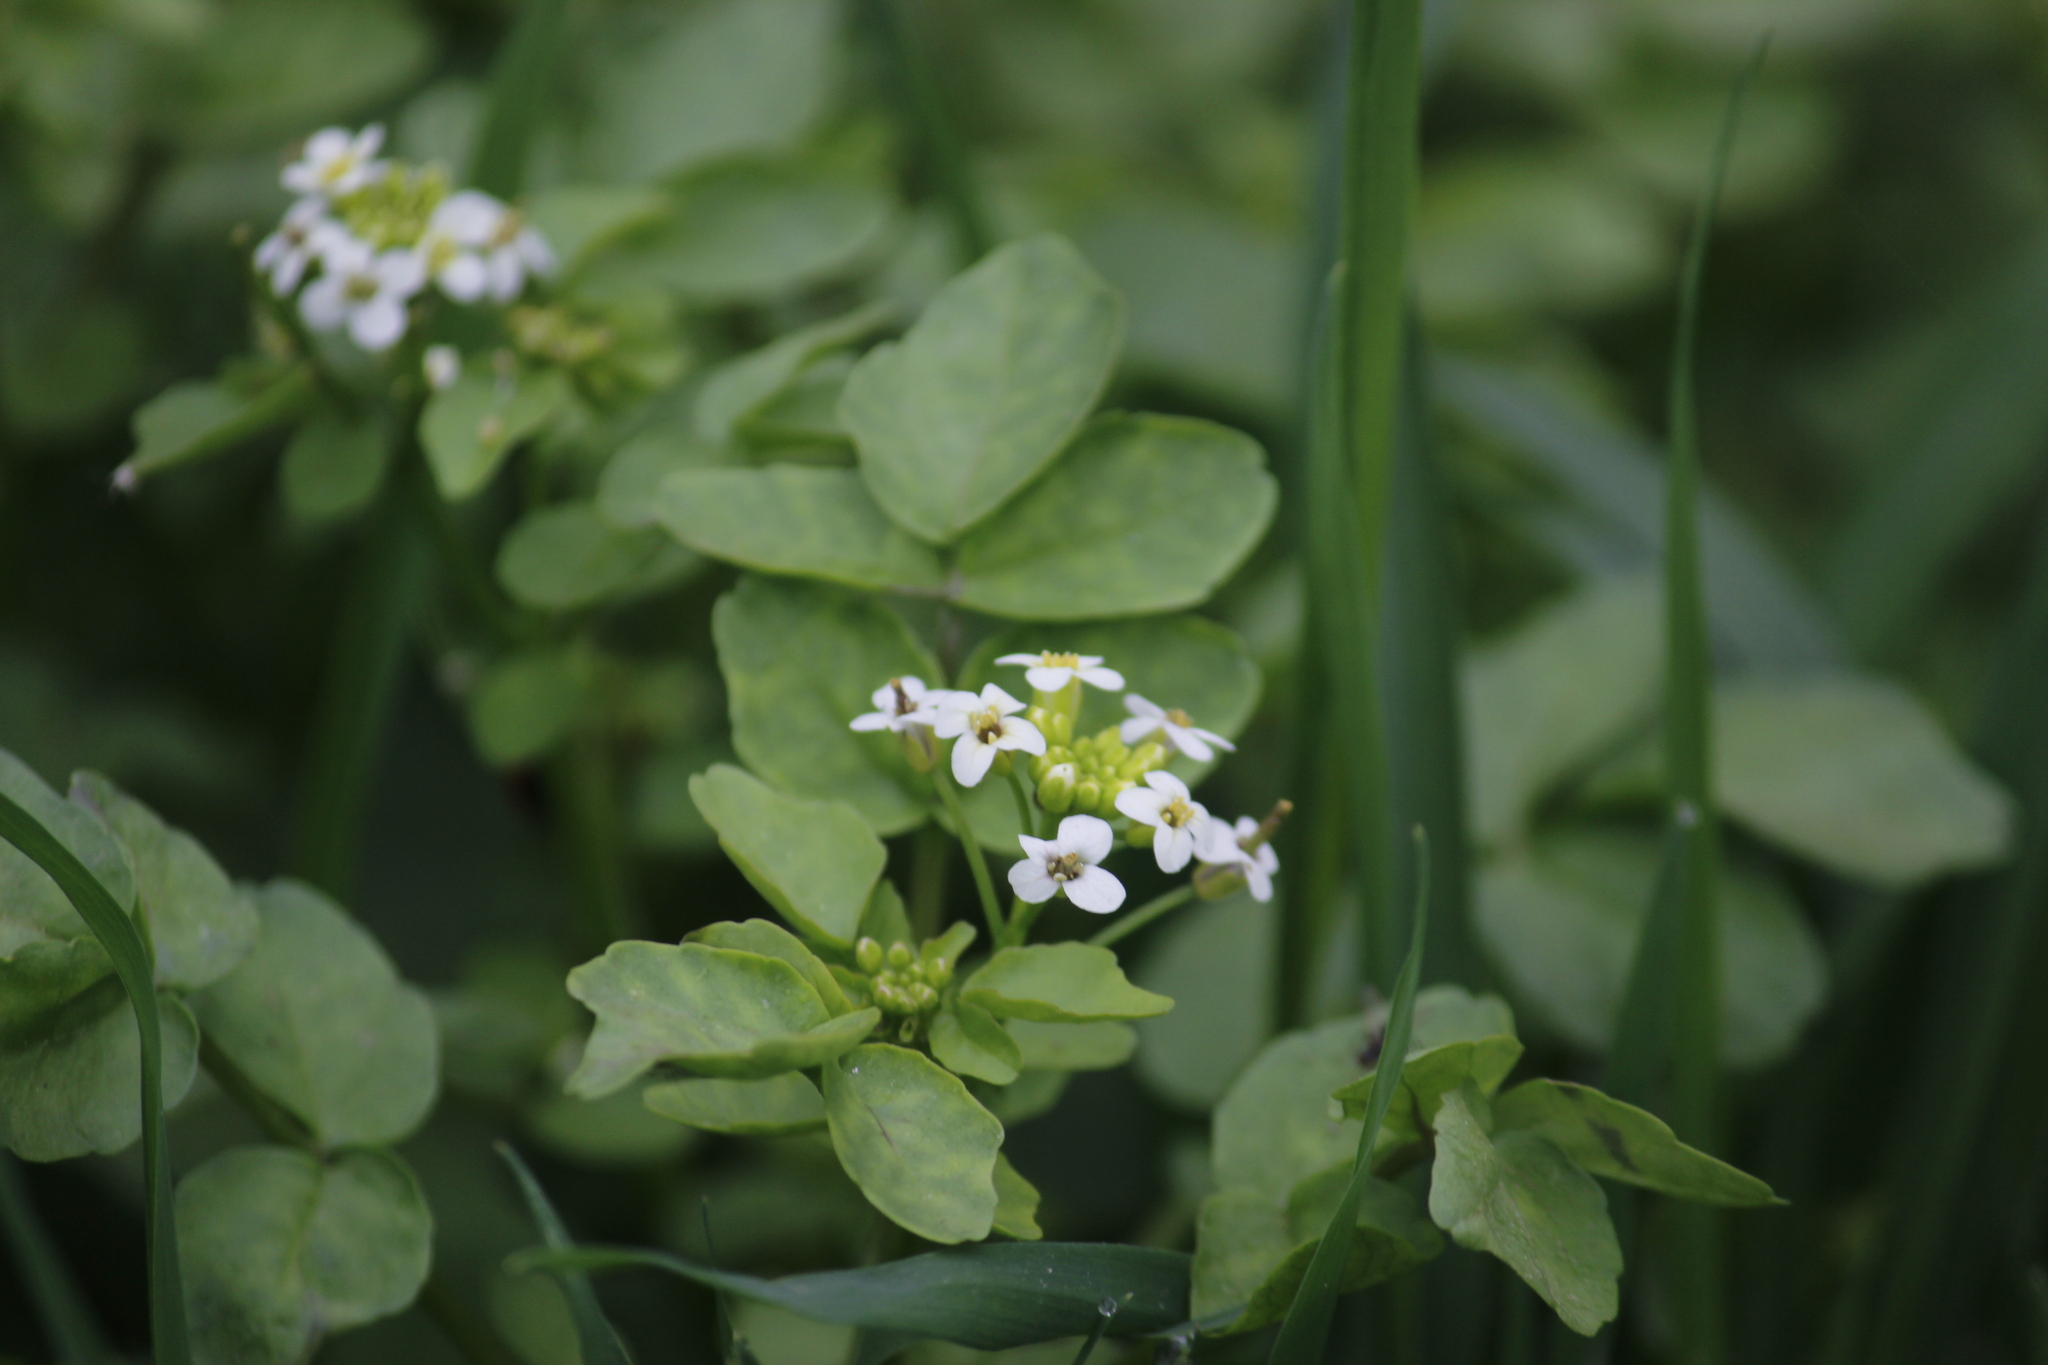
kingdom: Plantae
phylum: Tracheophyta
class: Magnoliopsida
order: Brassicales
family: Brassicaceae
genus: Nasturtium
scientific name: Nasturtium officinale
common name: Watercress
